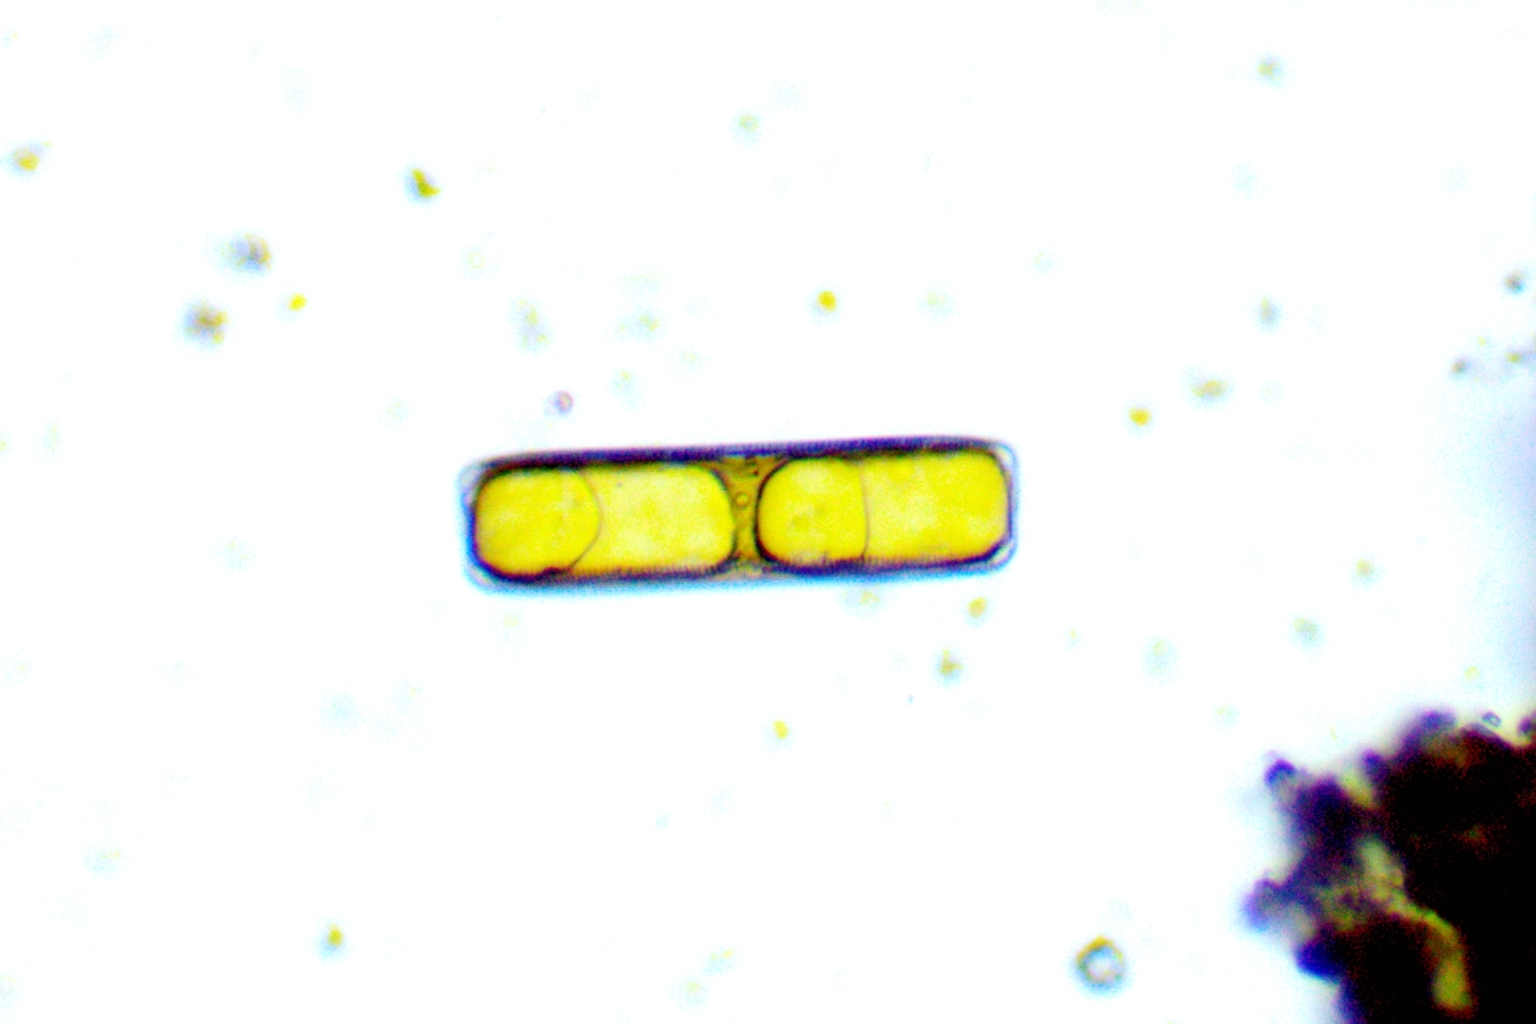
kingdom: Chromista
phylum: Ochrophyta
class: Bacillariophyceae
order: Naviculales
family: Pinnulariaceae
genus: Pinnularia
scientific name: Pinnularia
